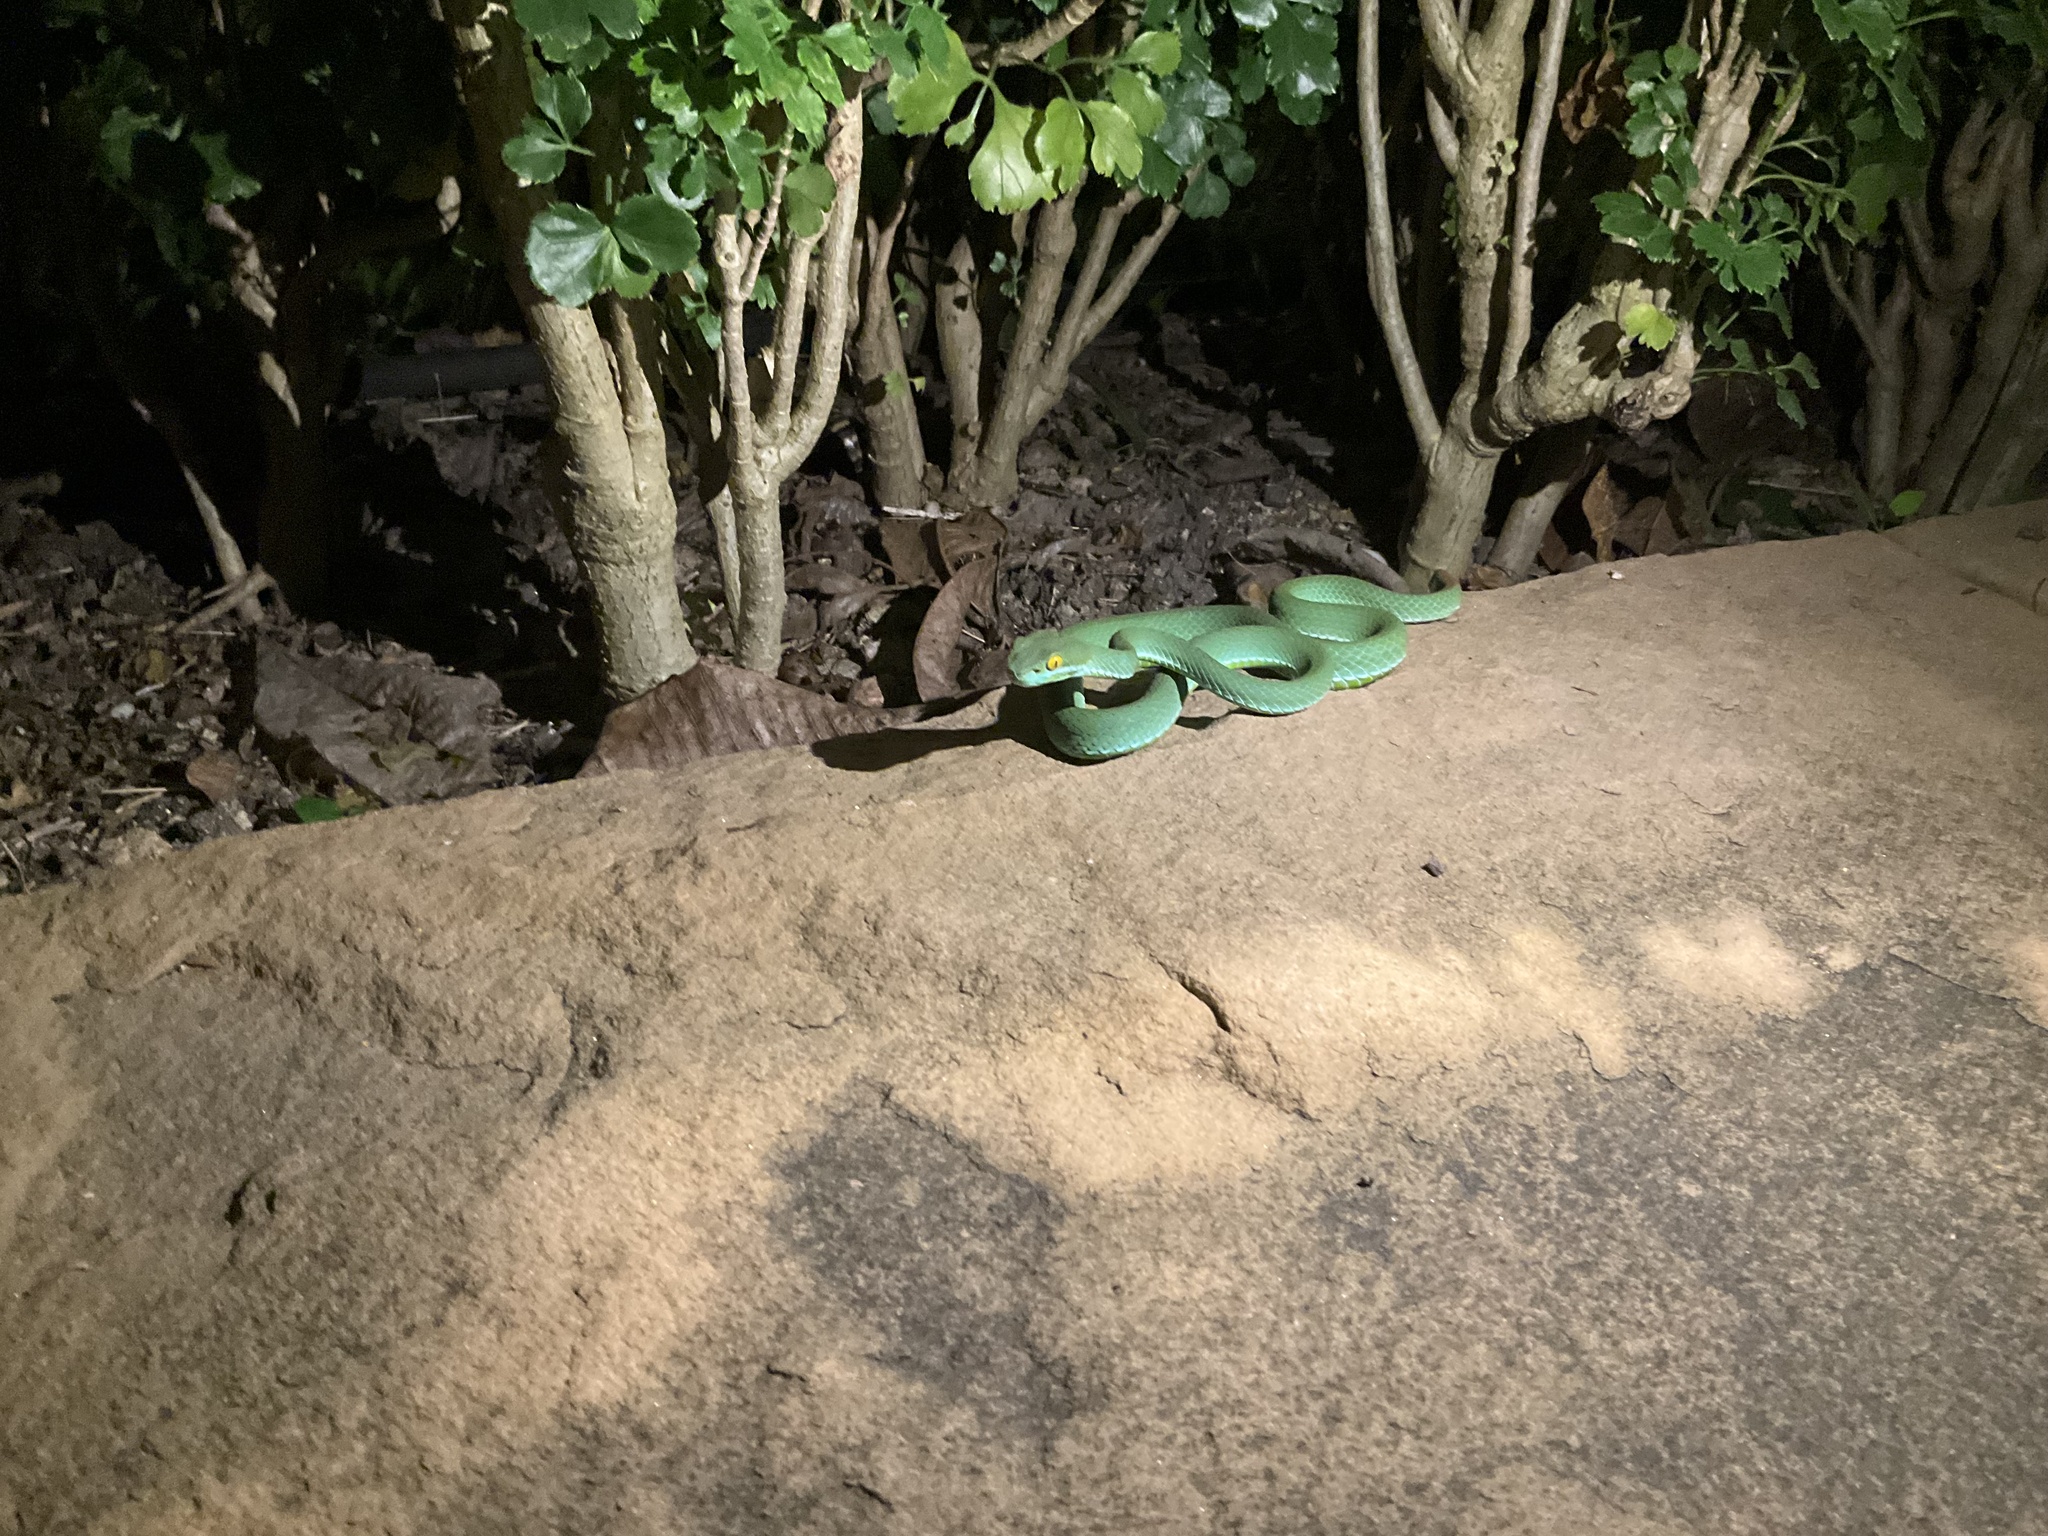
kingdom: Animalia
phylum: Chordata
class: Squamata
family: Viperidae
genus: Trimeresurus
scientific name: Trimeresurus macrops
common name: Kramer's pit viper
